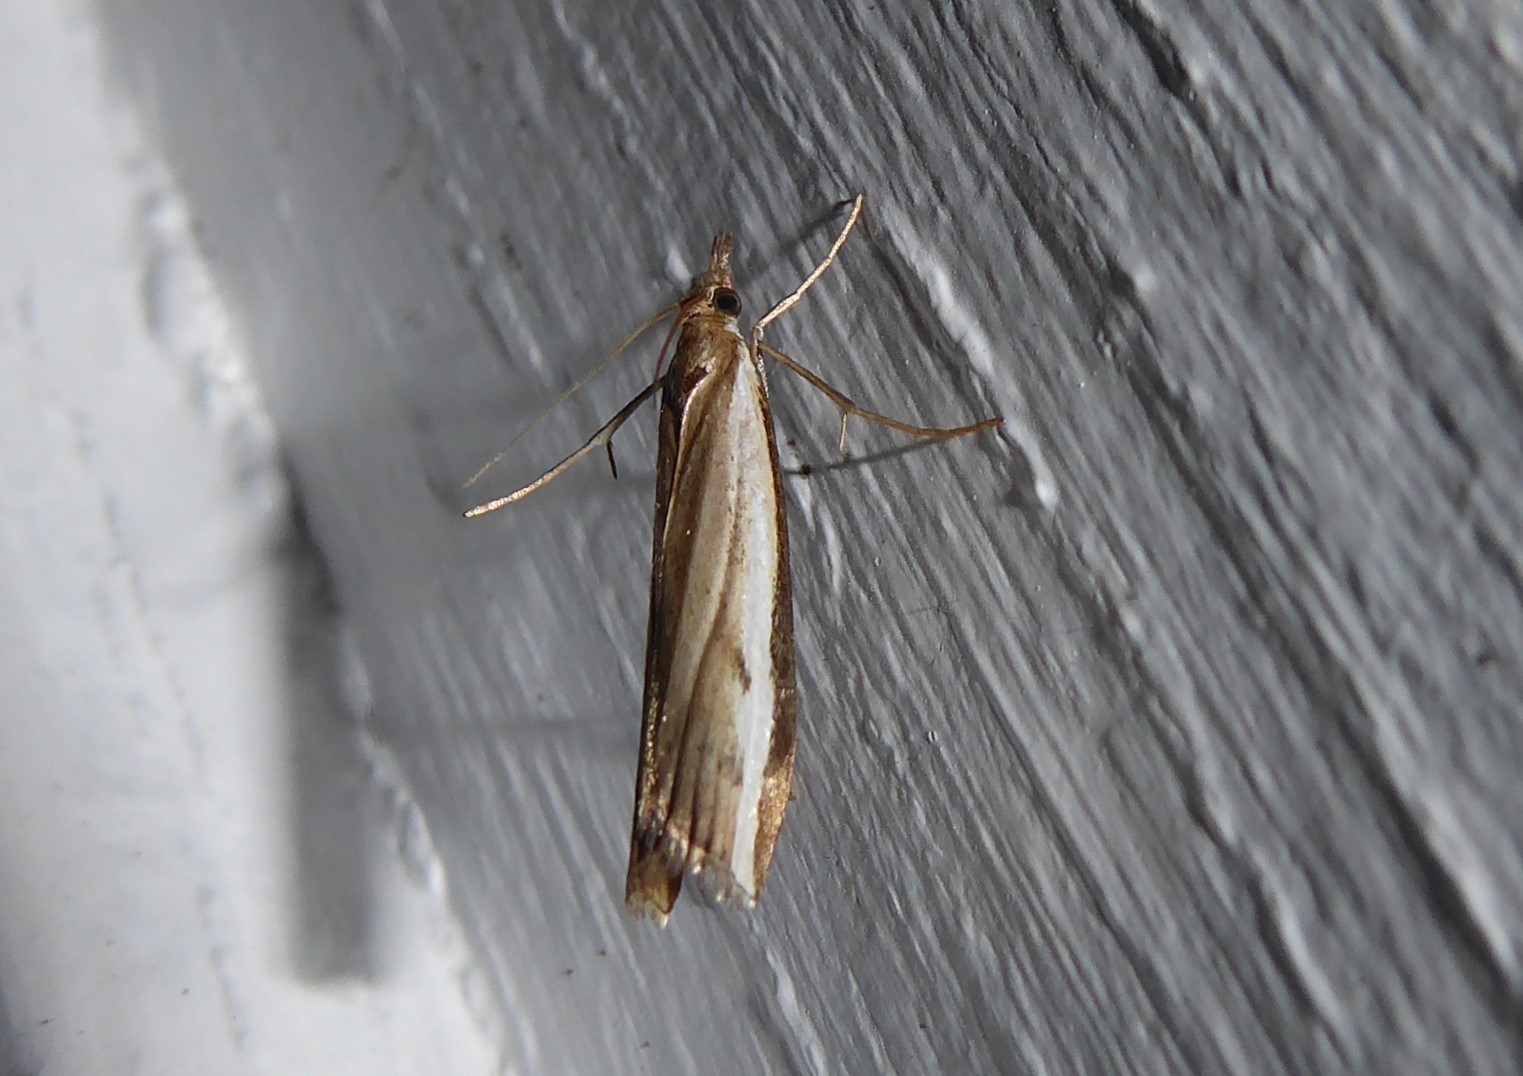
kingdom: Animalia
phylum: Arthropoda
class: Insecta
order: Lepidoptera
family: Crambidae
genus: Orocrambus
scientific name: Orocrambus flexuosellus
